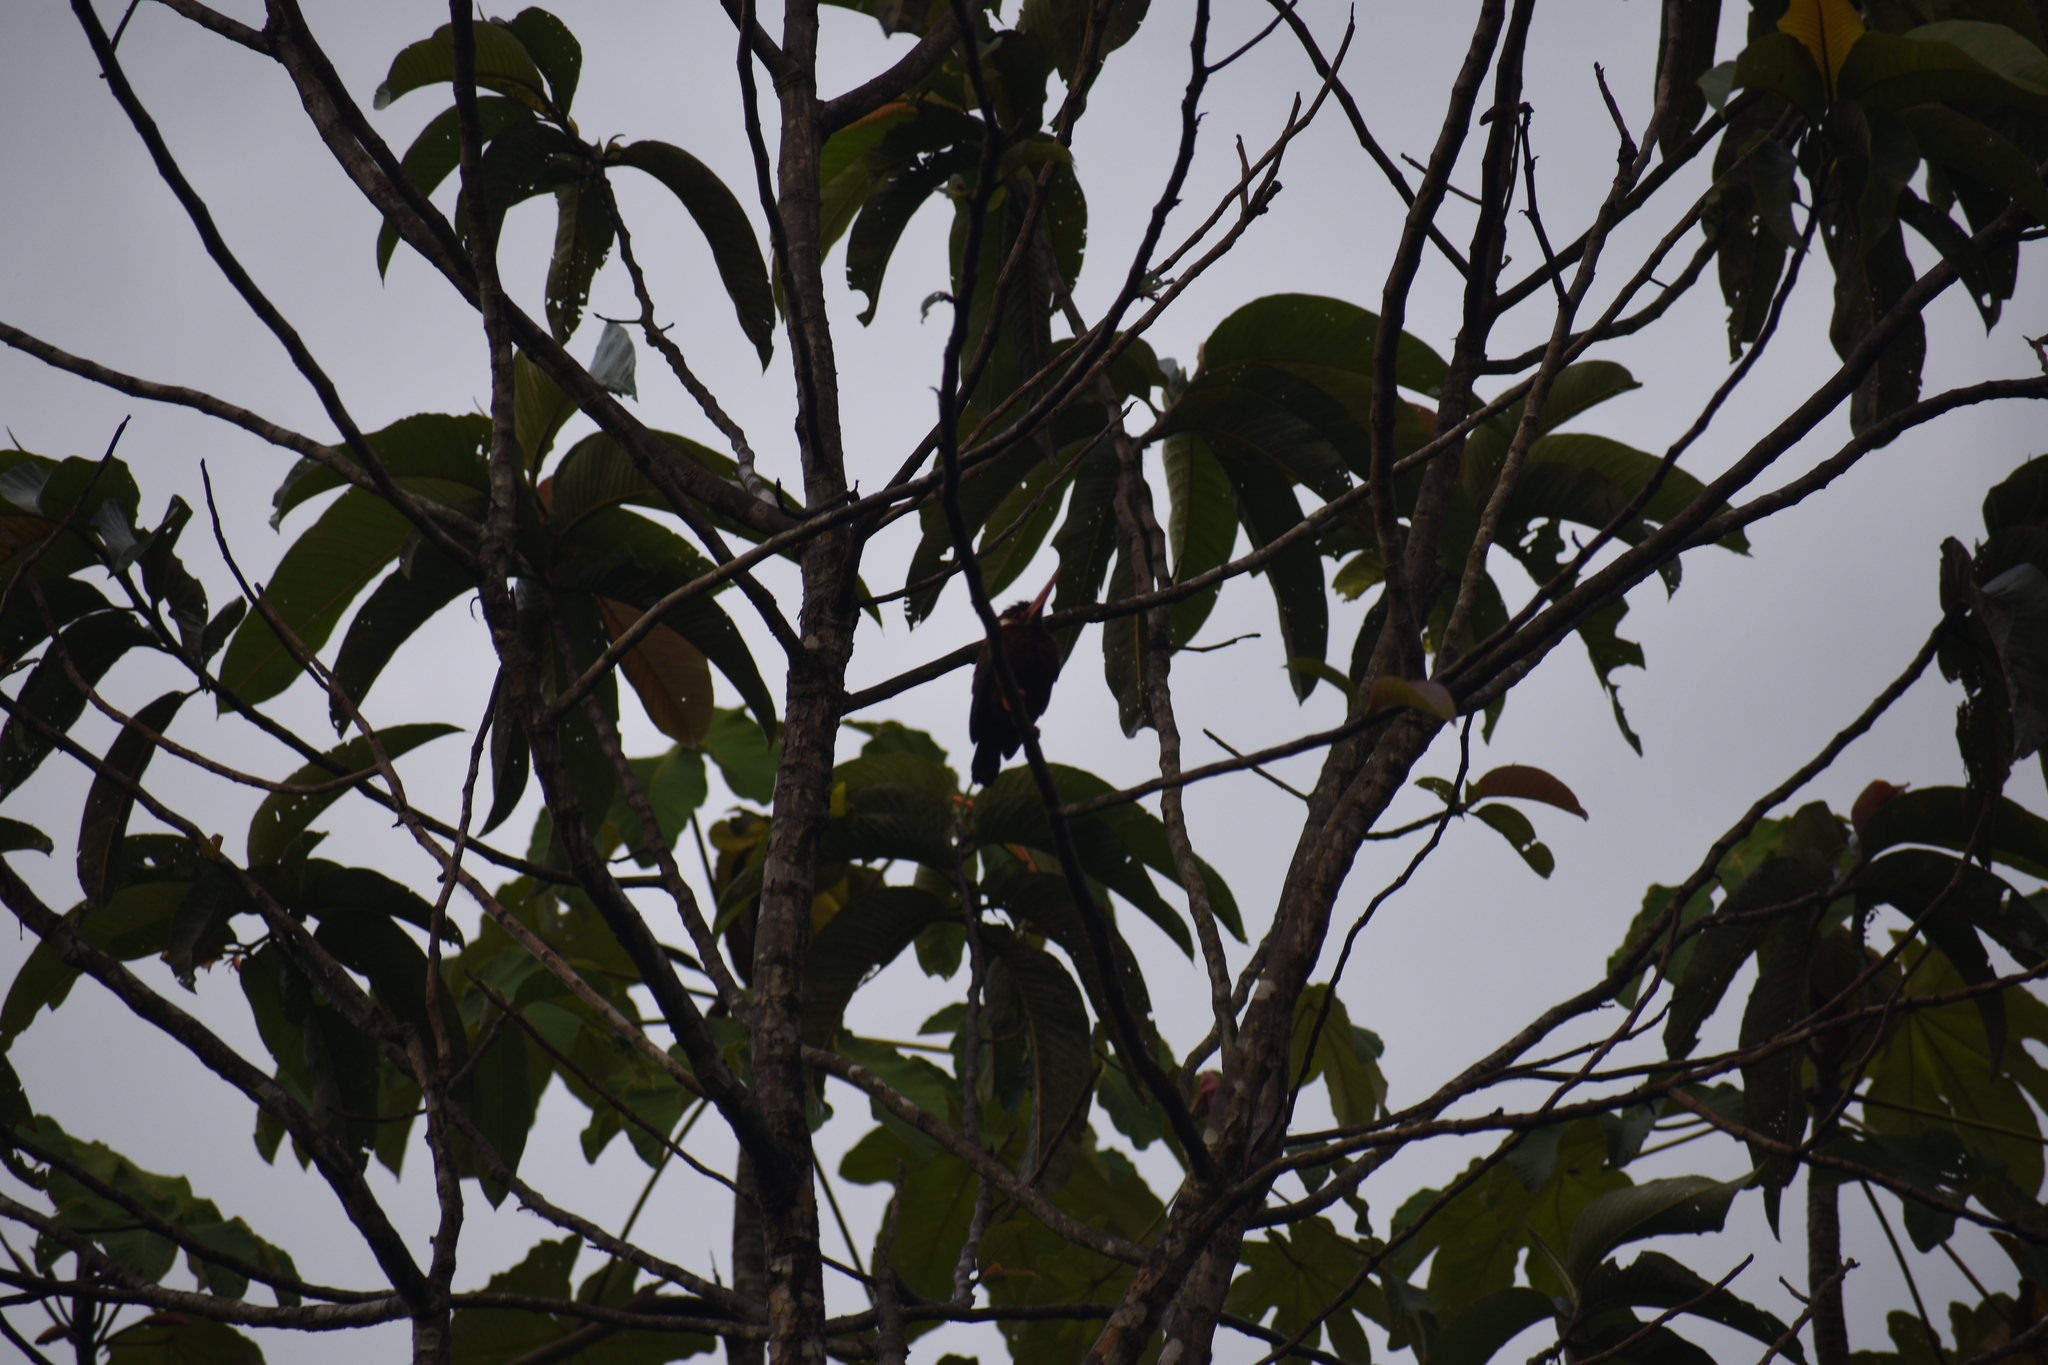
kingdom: Animalia
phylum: Chordata
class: Aves
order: Piciformes
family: Galbulidae
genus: Galbalcyrhynchus
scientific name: Galbalcyrhynchus leucotis
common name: White-eared jacamar
